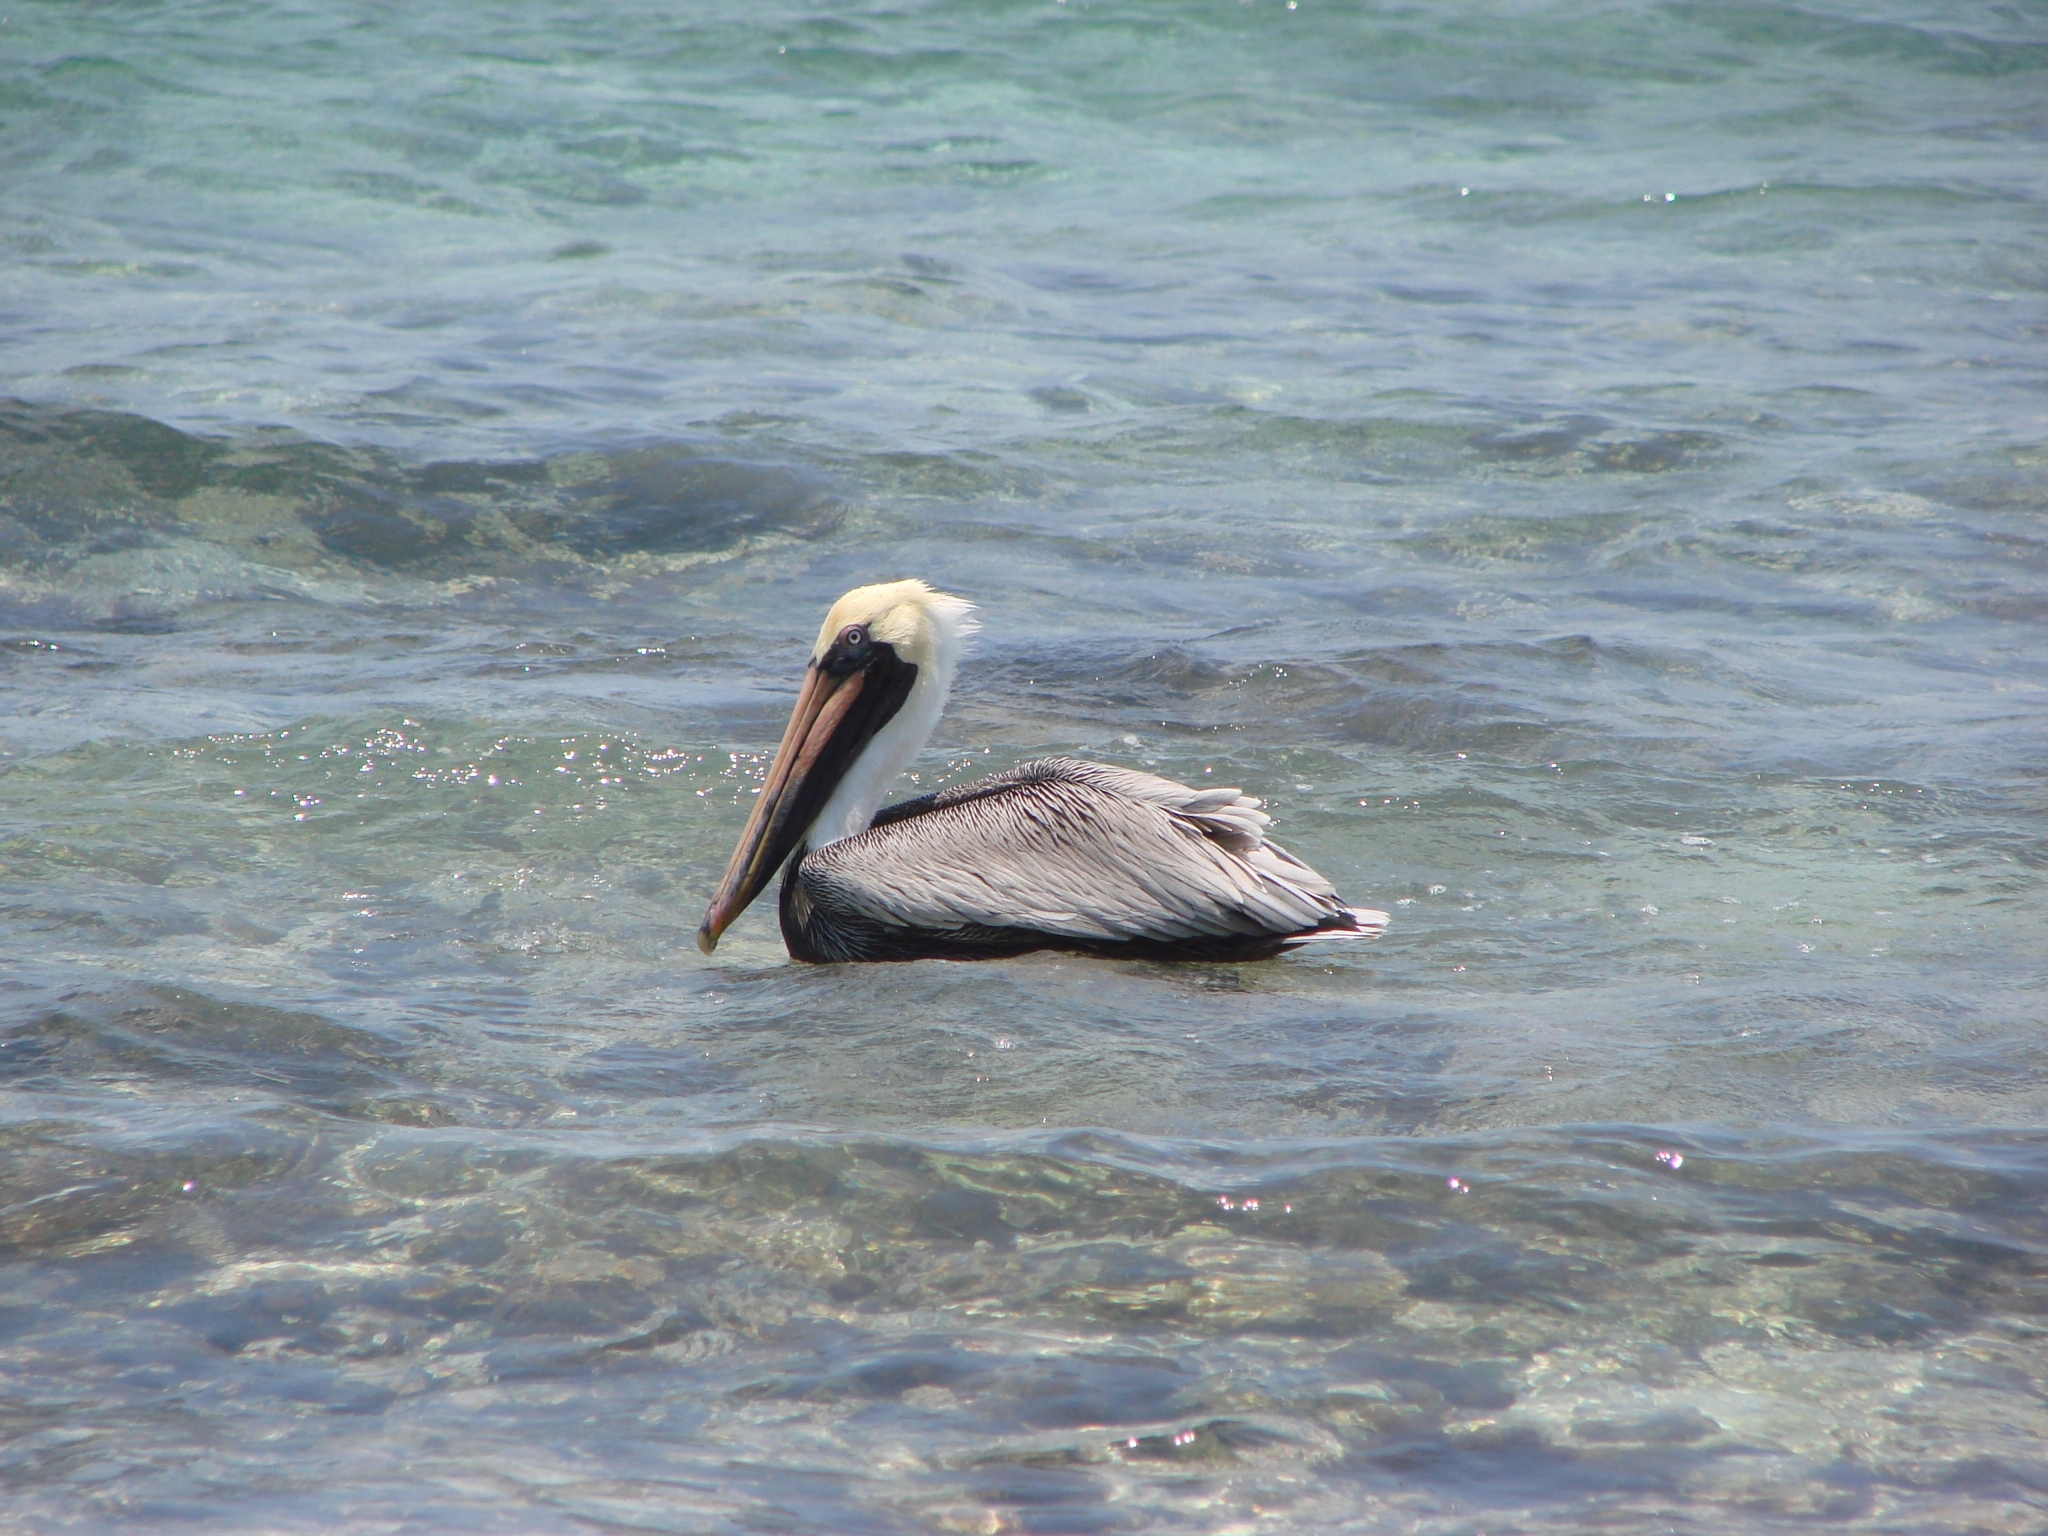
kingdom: Animalia
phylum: Chordata
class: Aves
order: Pelecaniformes
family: Pelecanidae
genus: Pelecanus
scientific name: Pelecanus occidentalis
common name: Brown pelican
